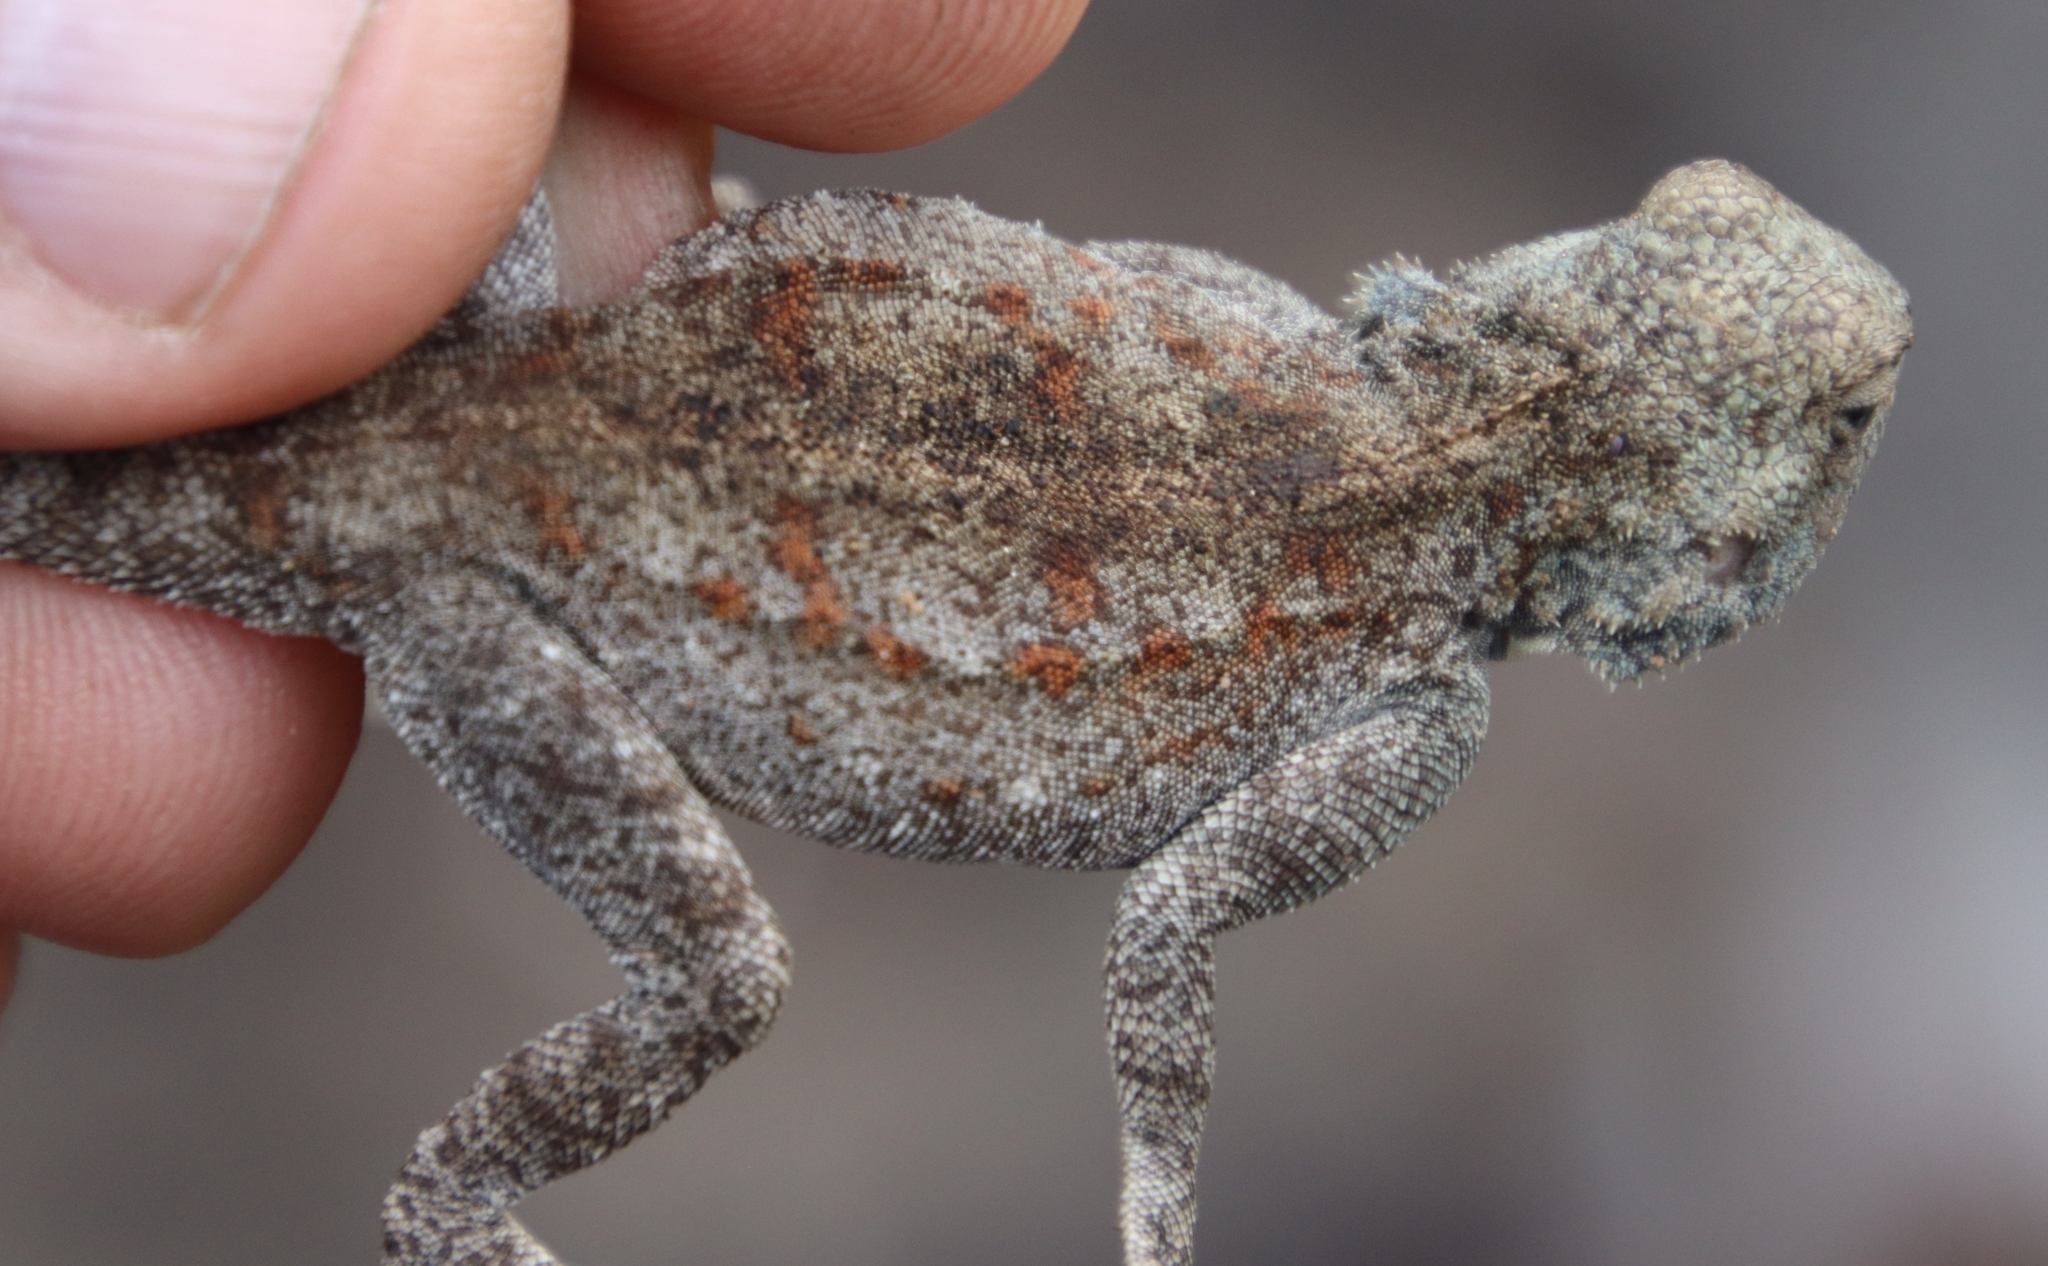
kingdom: Animalia
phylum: Chordata
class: Squamata
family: Agamidae
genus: Agama
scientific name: Agama atra
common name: Southern african rock agama
